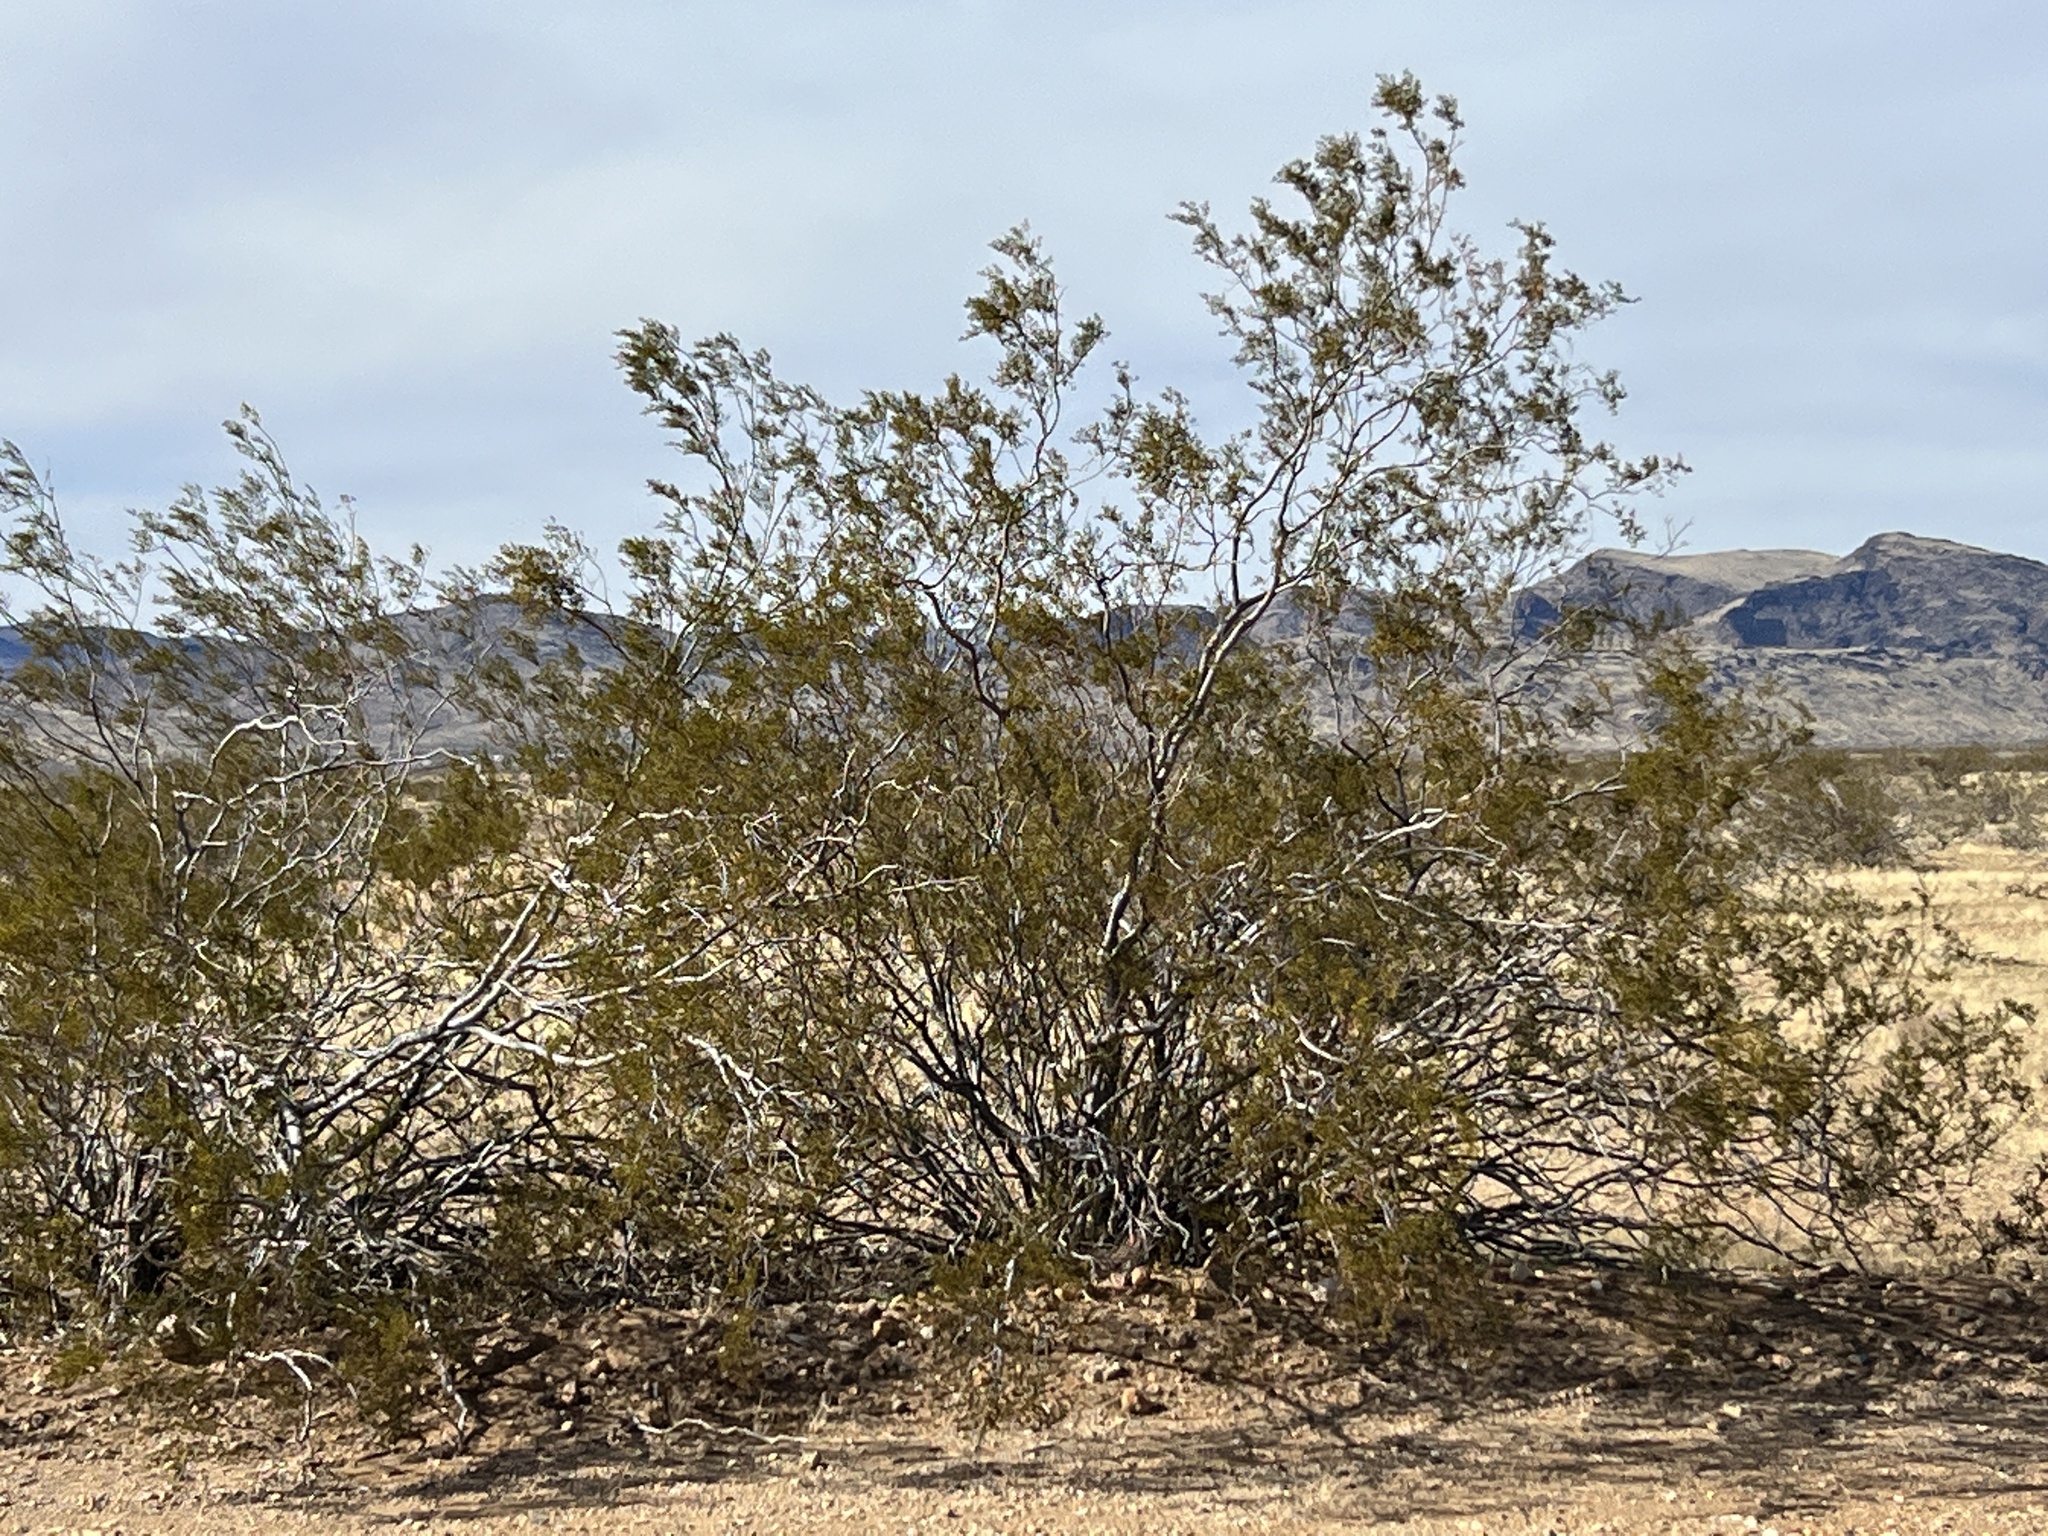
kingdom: Plantae
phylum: Tracheophyta
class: Magnoliopsida
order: Zygophyllales
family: Zygophyllaceae
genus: Larrea
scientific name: Larrea tridentata
